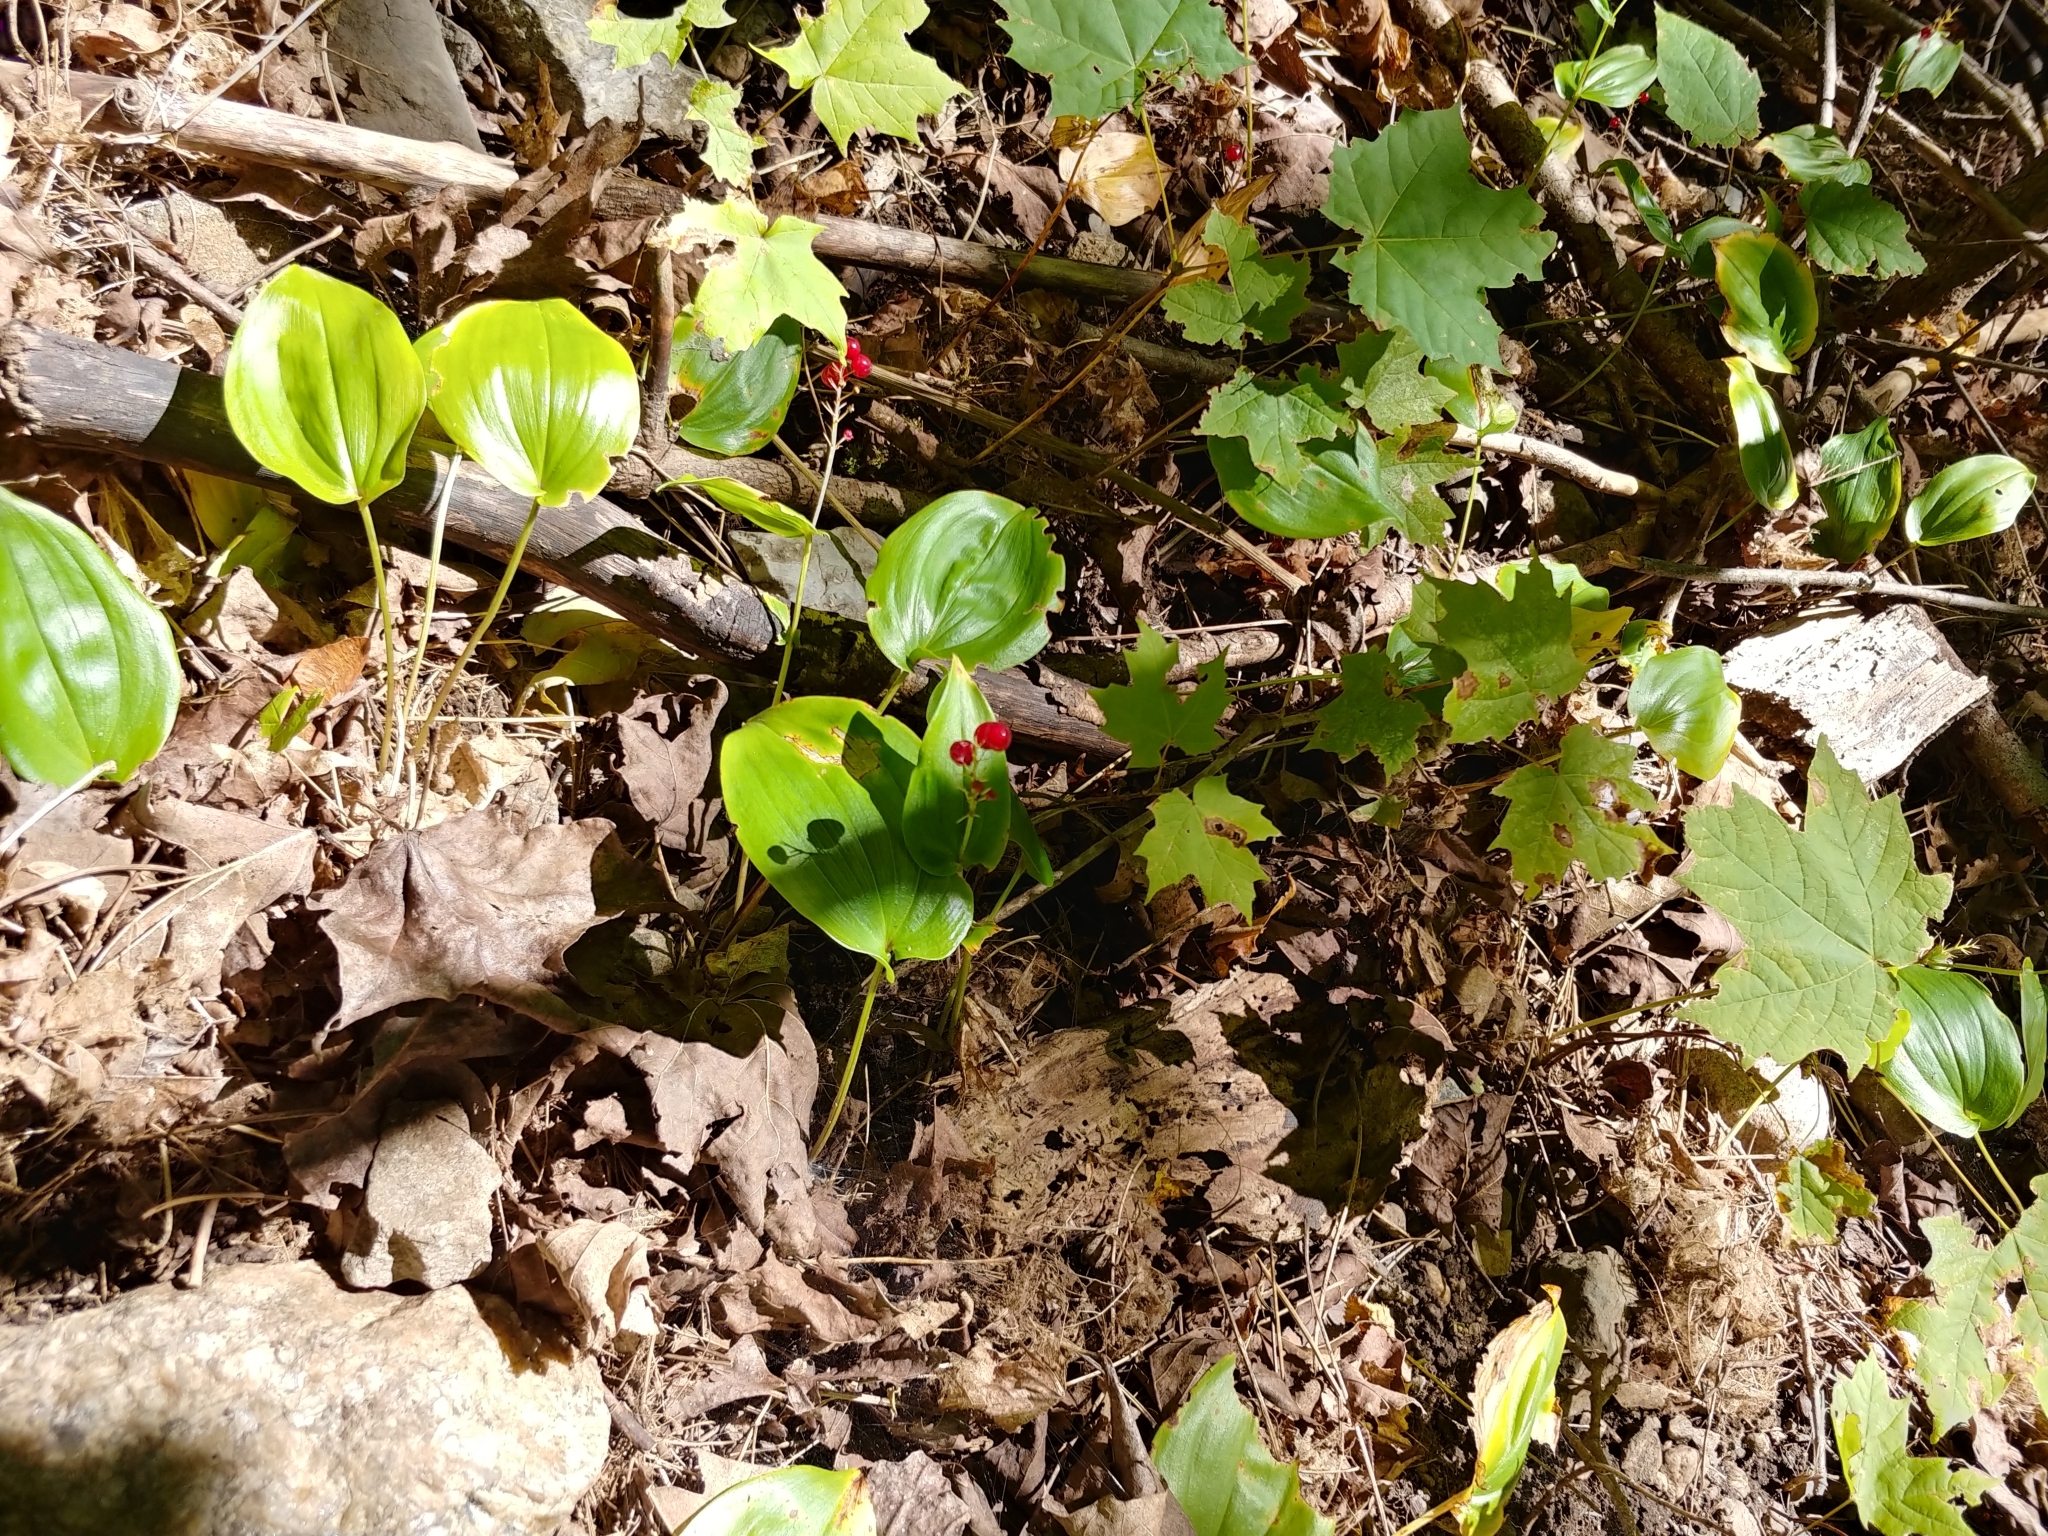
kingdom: Plantae
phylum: Tracheophyta
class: Liliopsida
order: Asparagales
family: Asparagaceae
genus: Maianthemum
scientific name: Maianthemum canadense
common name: False lily-of-the-valley
